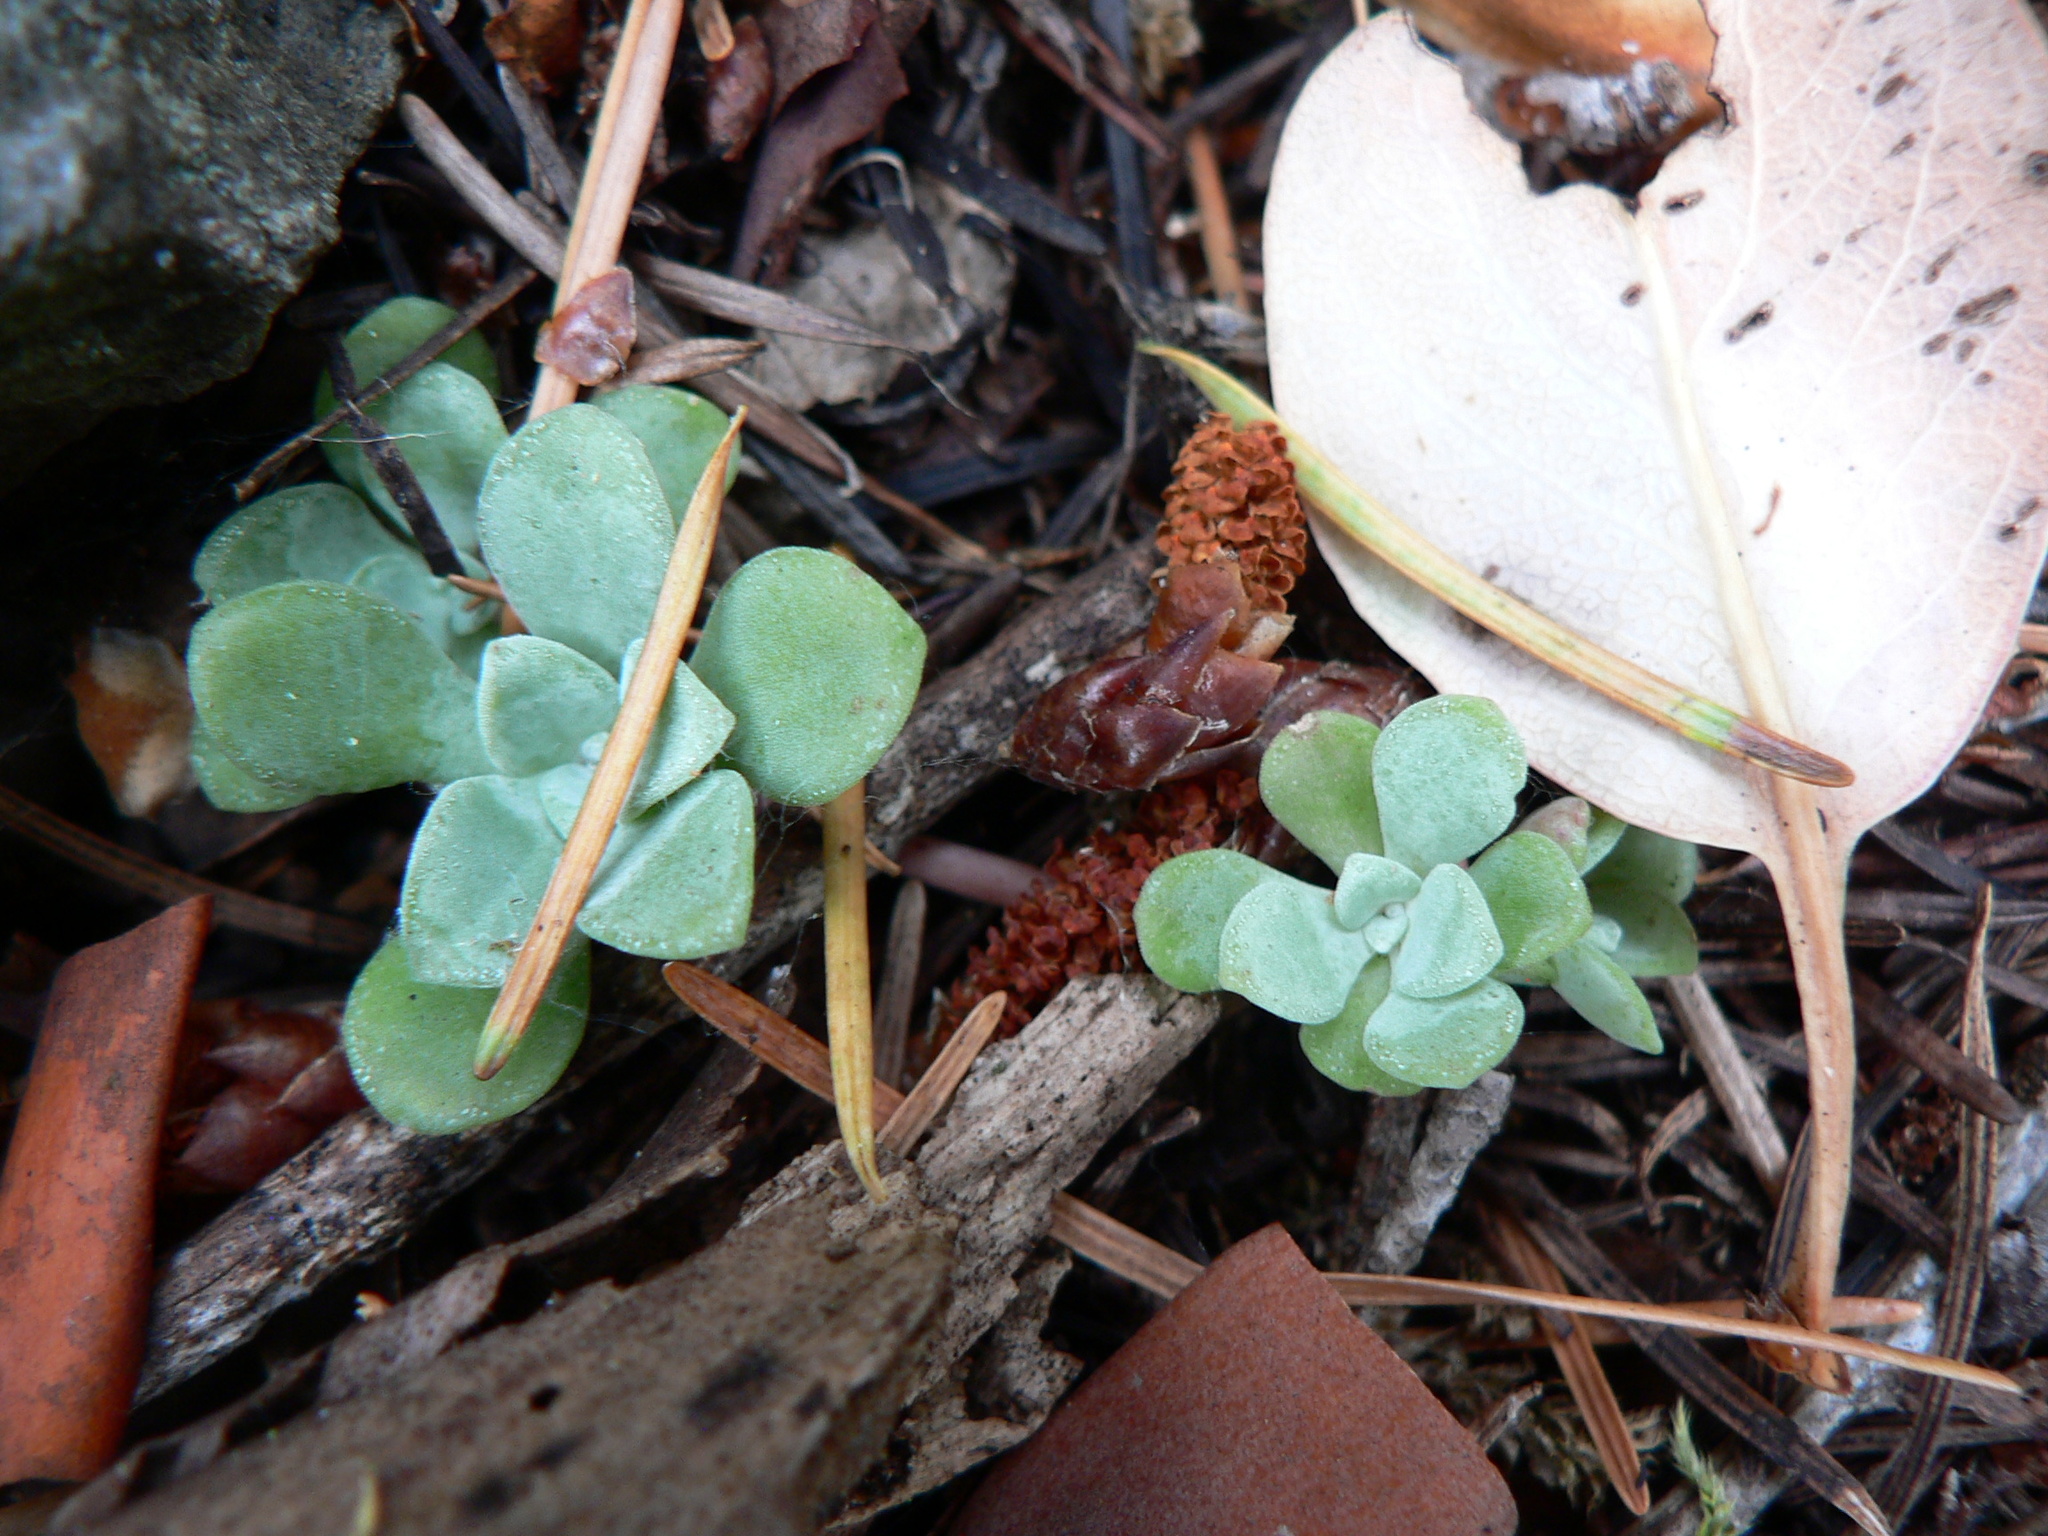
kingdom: Plantae
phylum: Tracheophyta
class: Magnoliopsida
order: Saxifragales
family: Crassulaceae
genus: Sedum
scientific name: Sedum spathulifolium
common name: Colorado stonecrop
